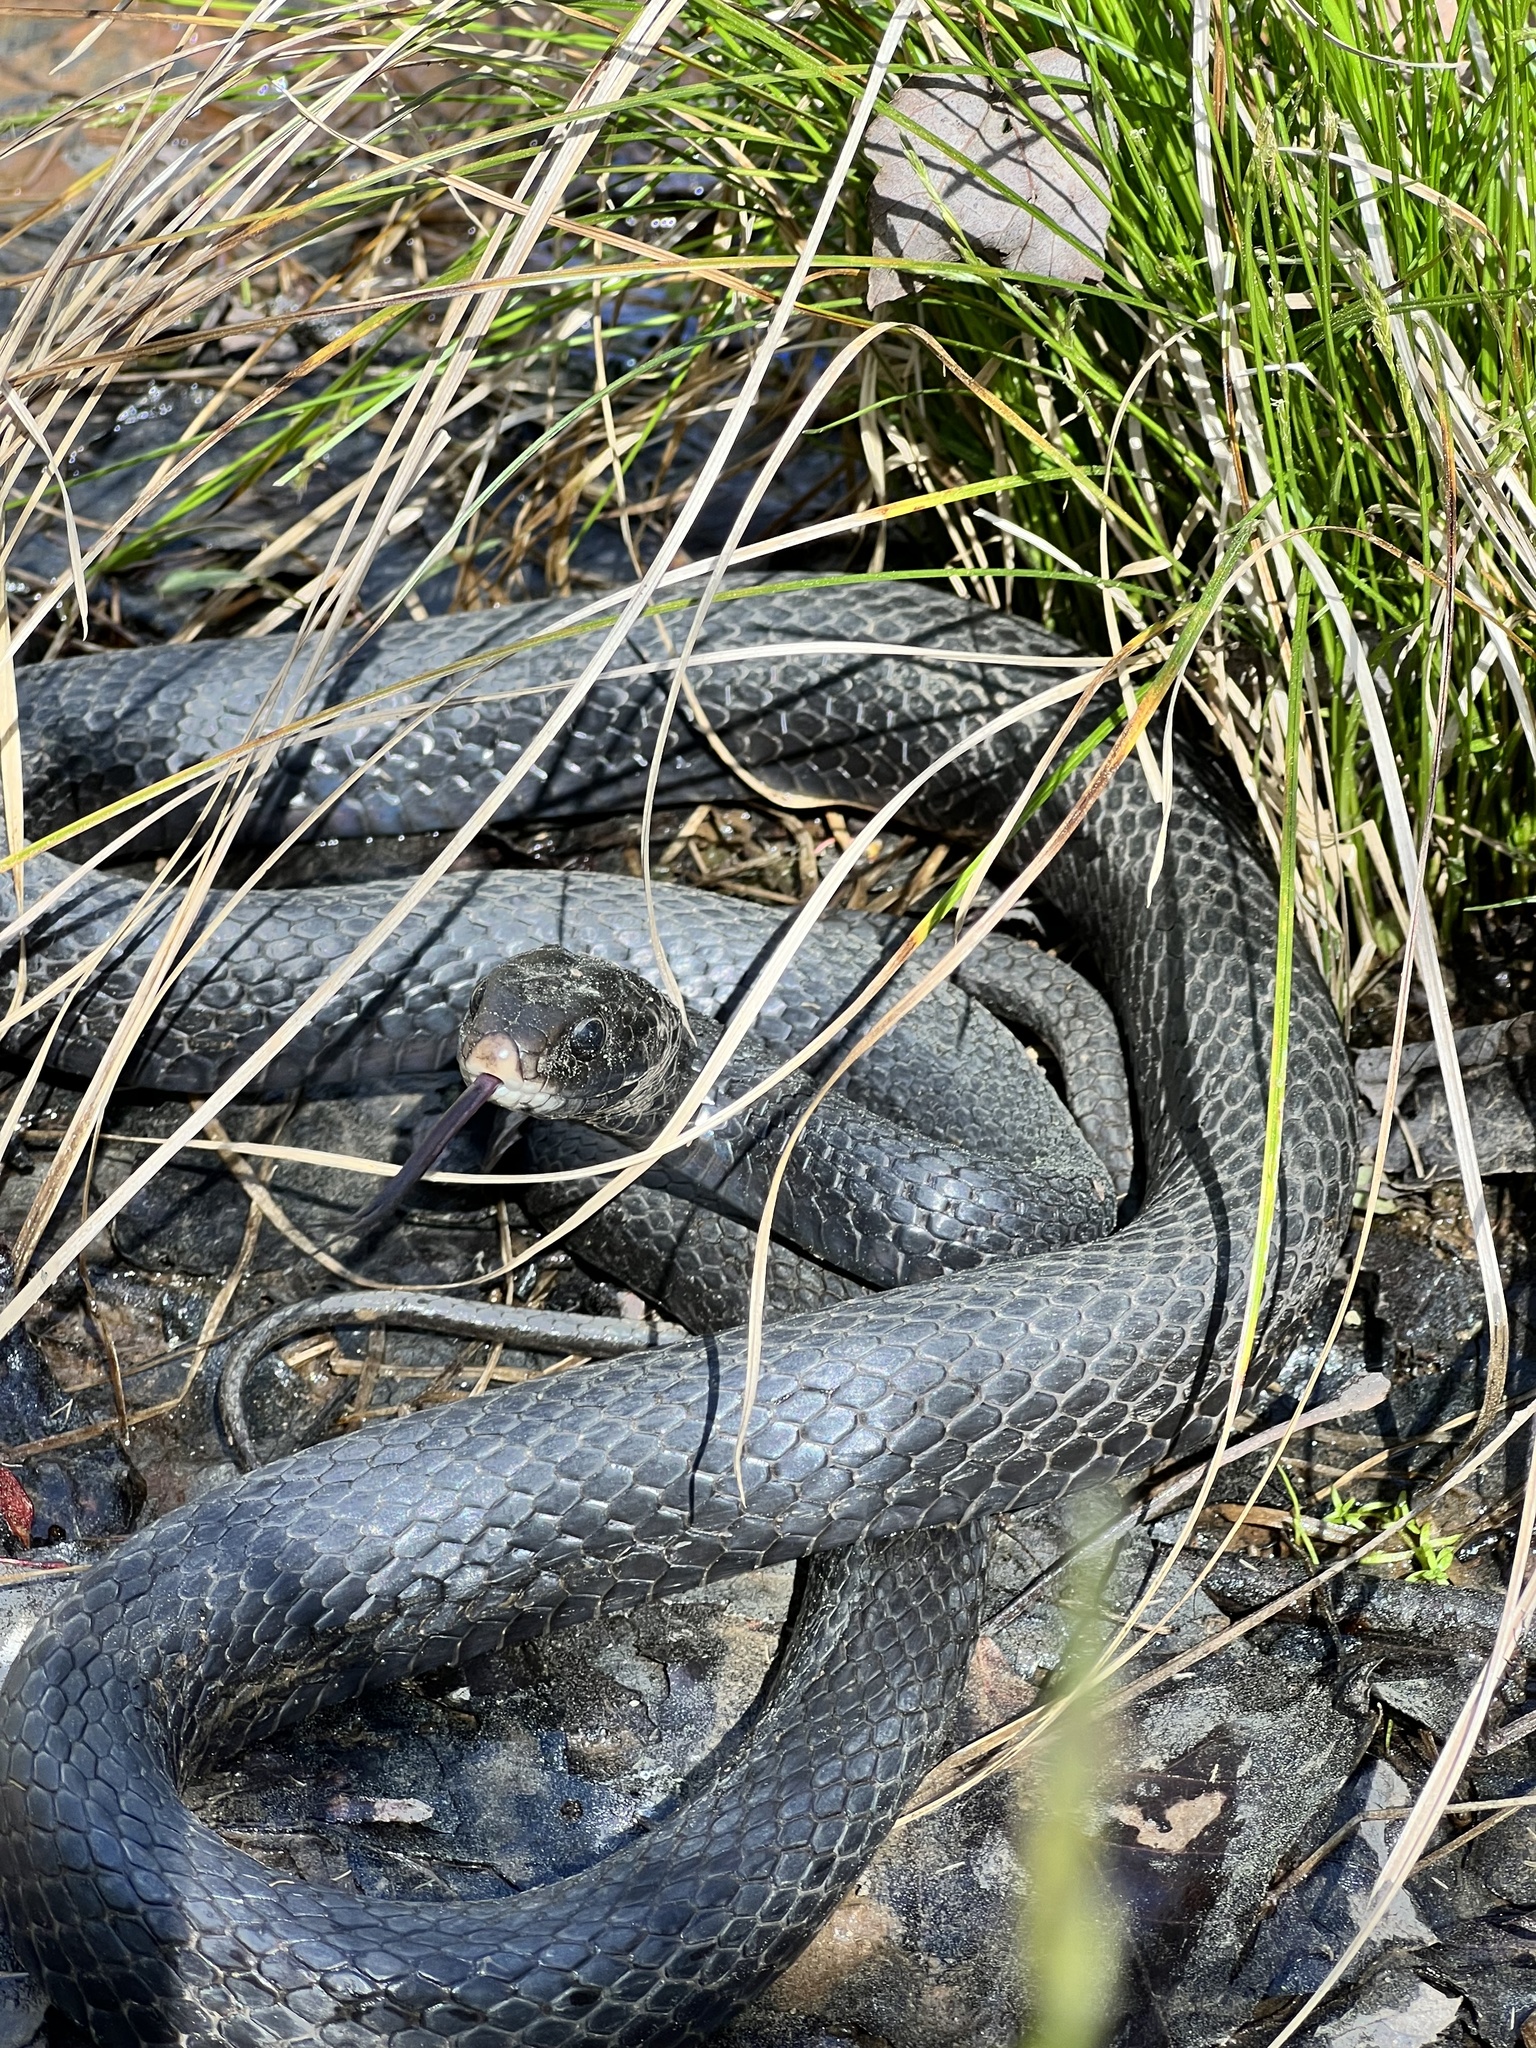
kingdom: Animalia
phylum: Chordata
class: Squamata
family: Colubridae
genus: Coluber
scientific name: Coluber constrictor
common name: Eastern racer
